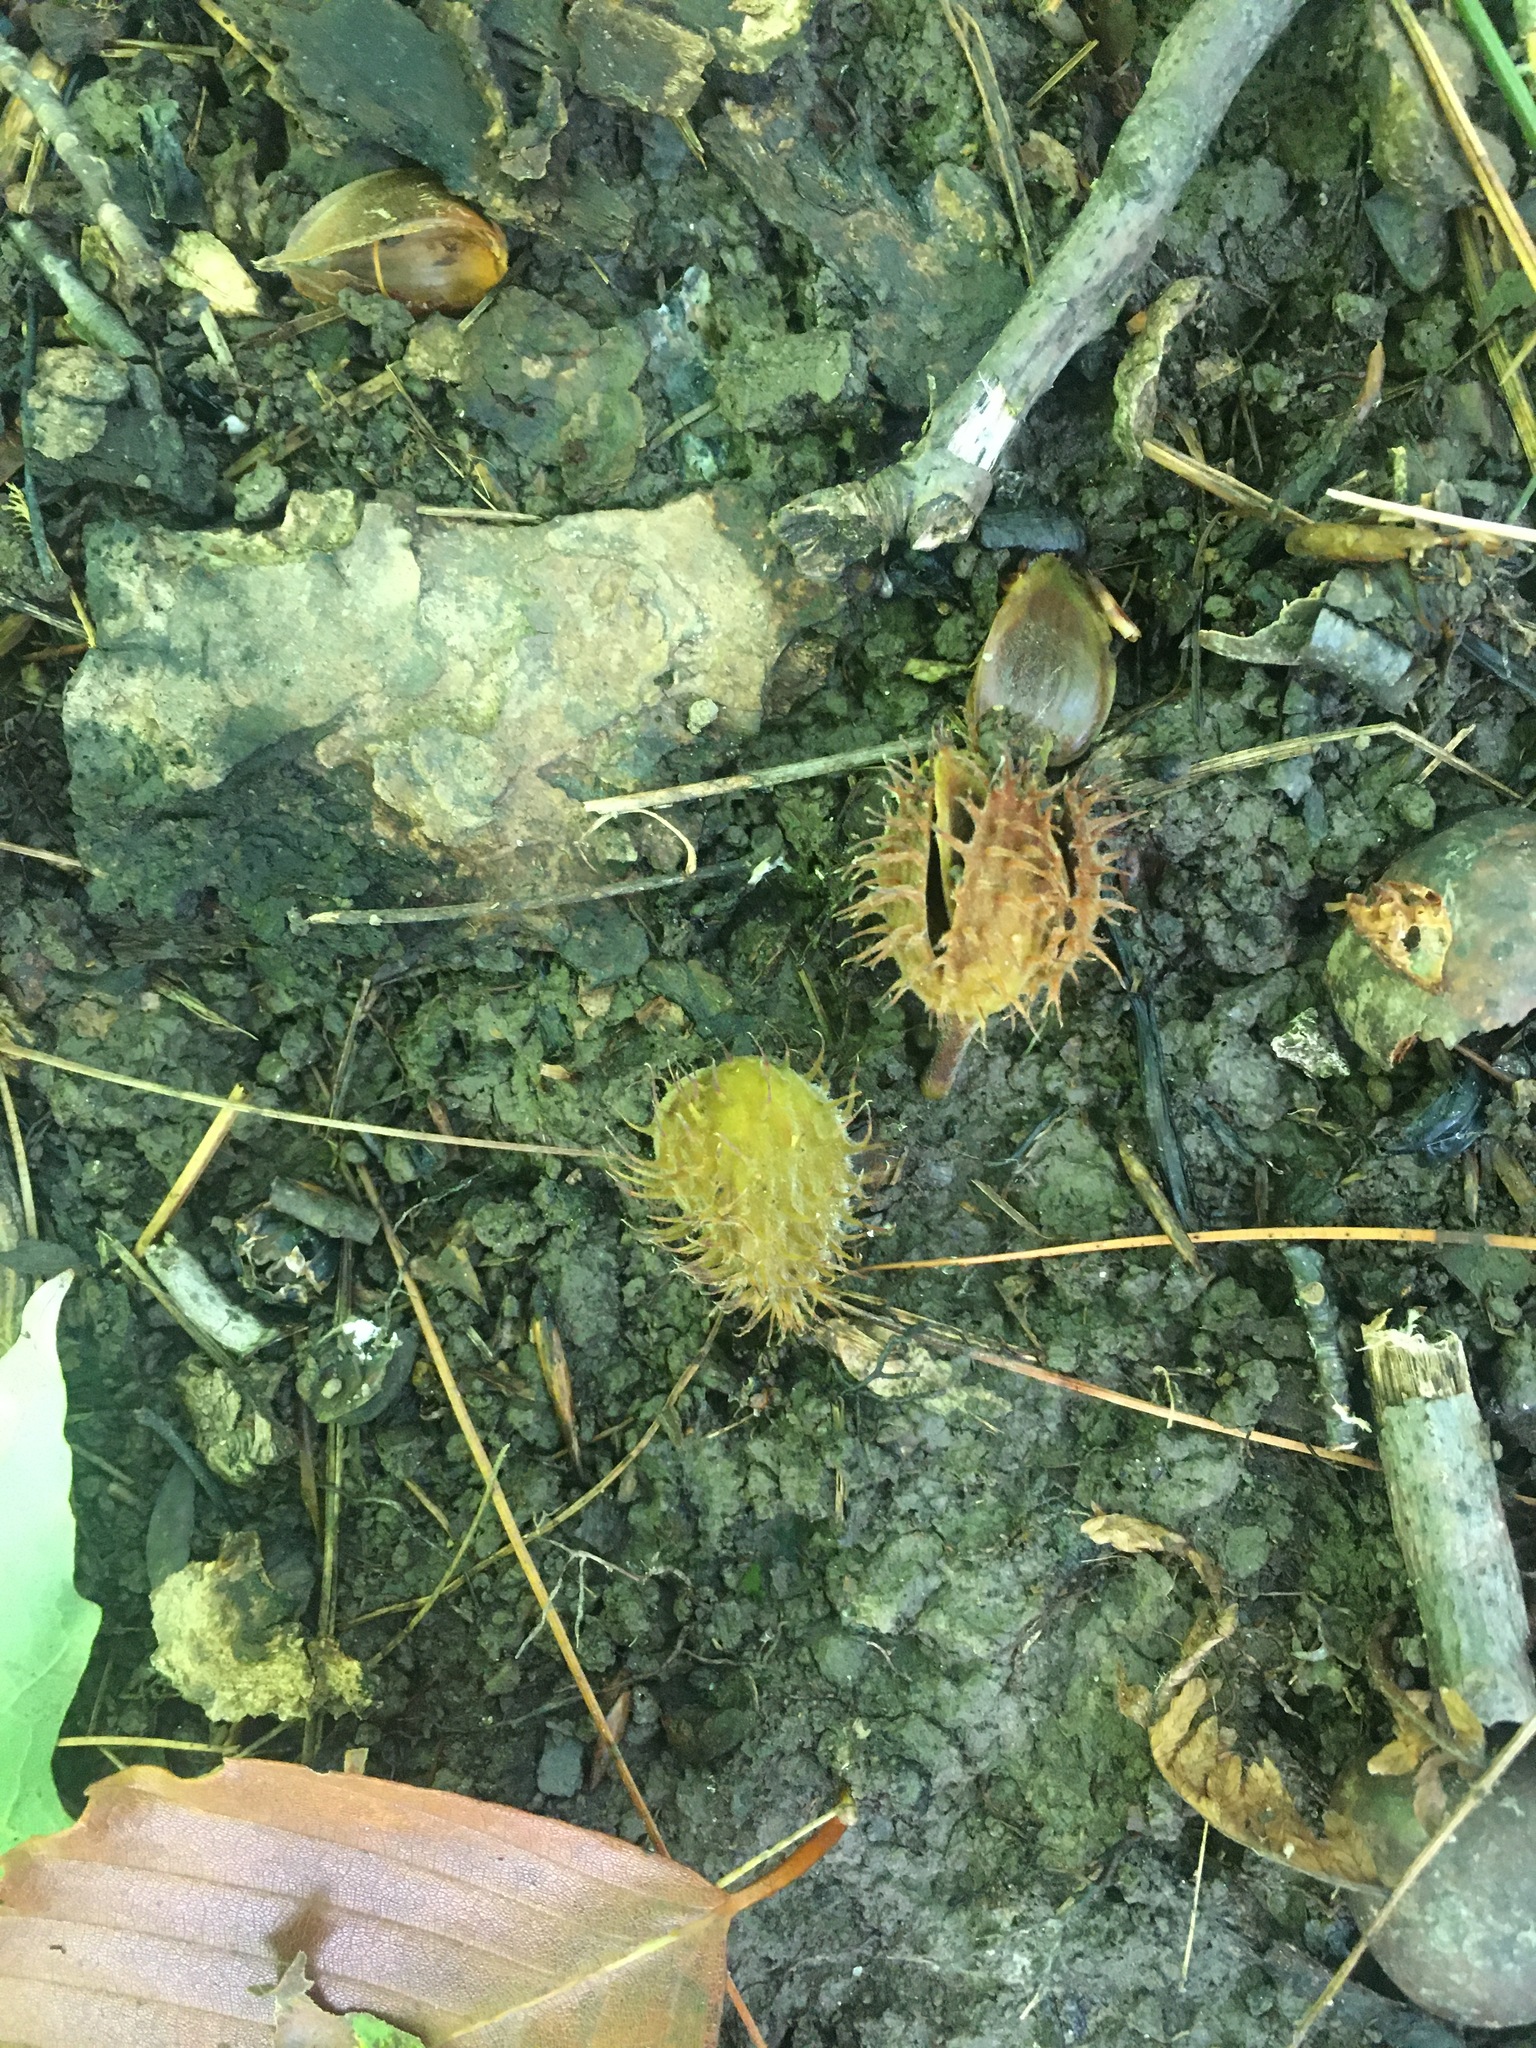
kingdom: Plantae
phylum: Tracheophyta
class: Magnoliopsida
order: Fagales
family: Fagaceae
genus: Fagus
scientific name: Fagus grandifolia
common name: American beech
